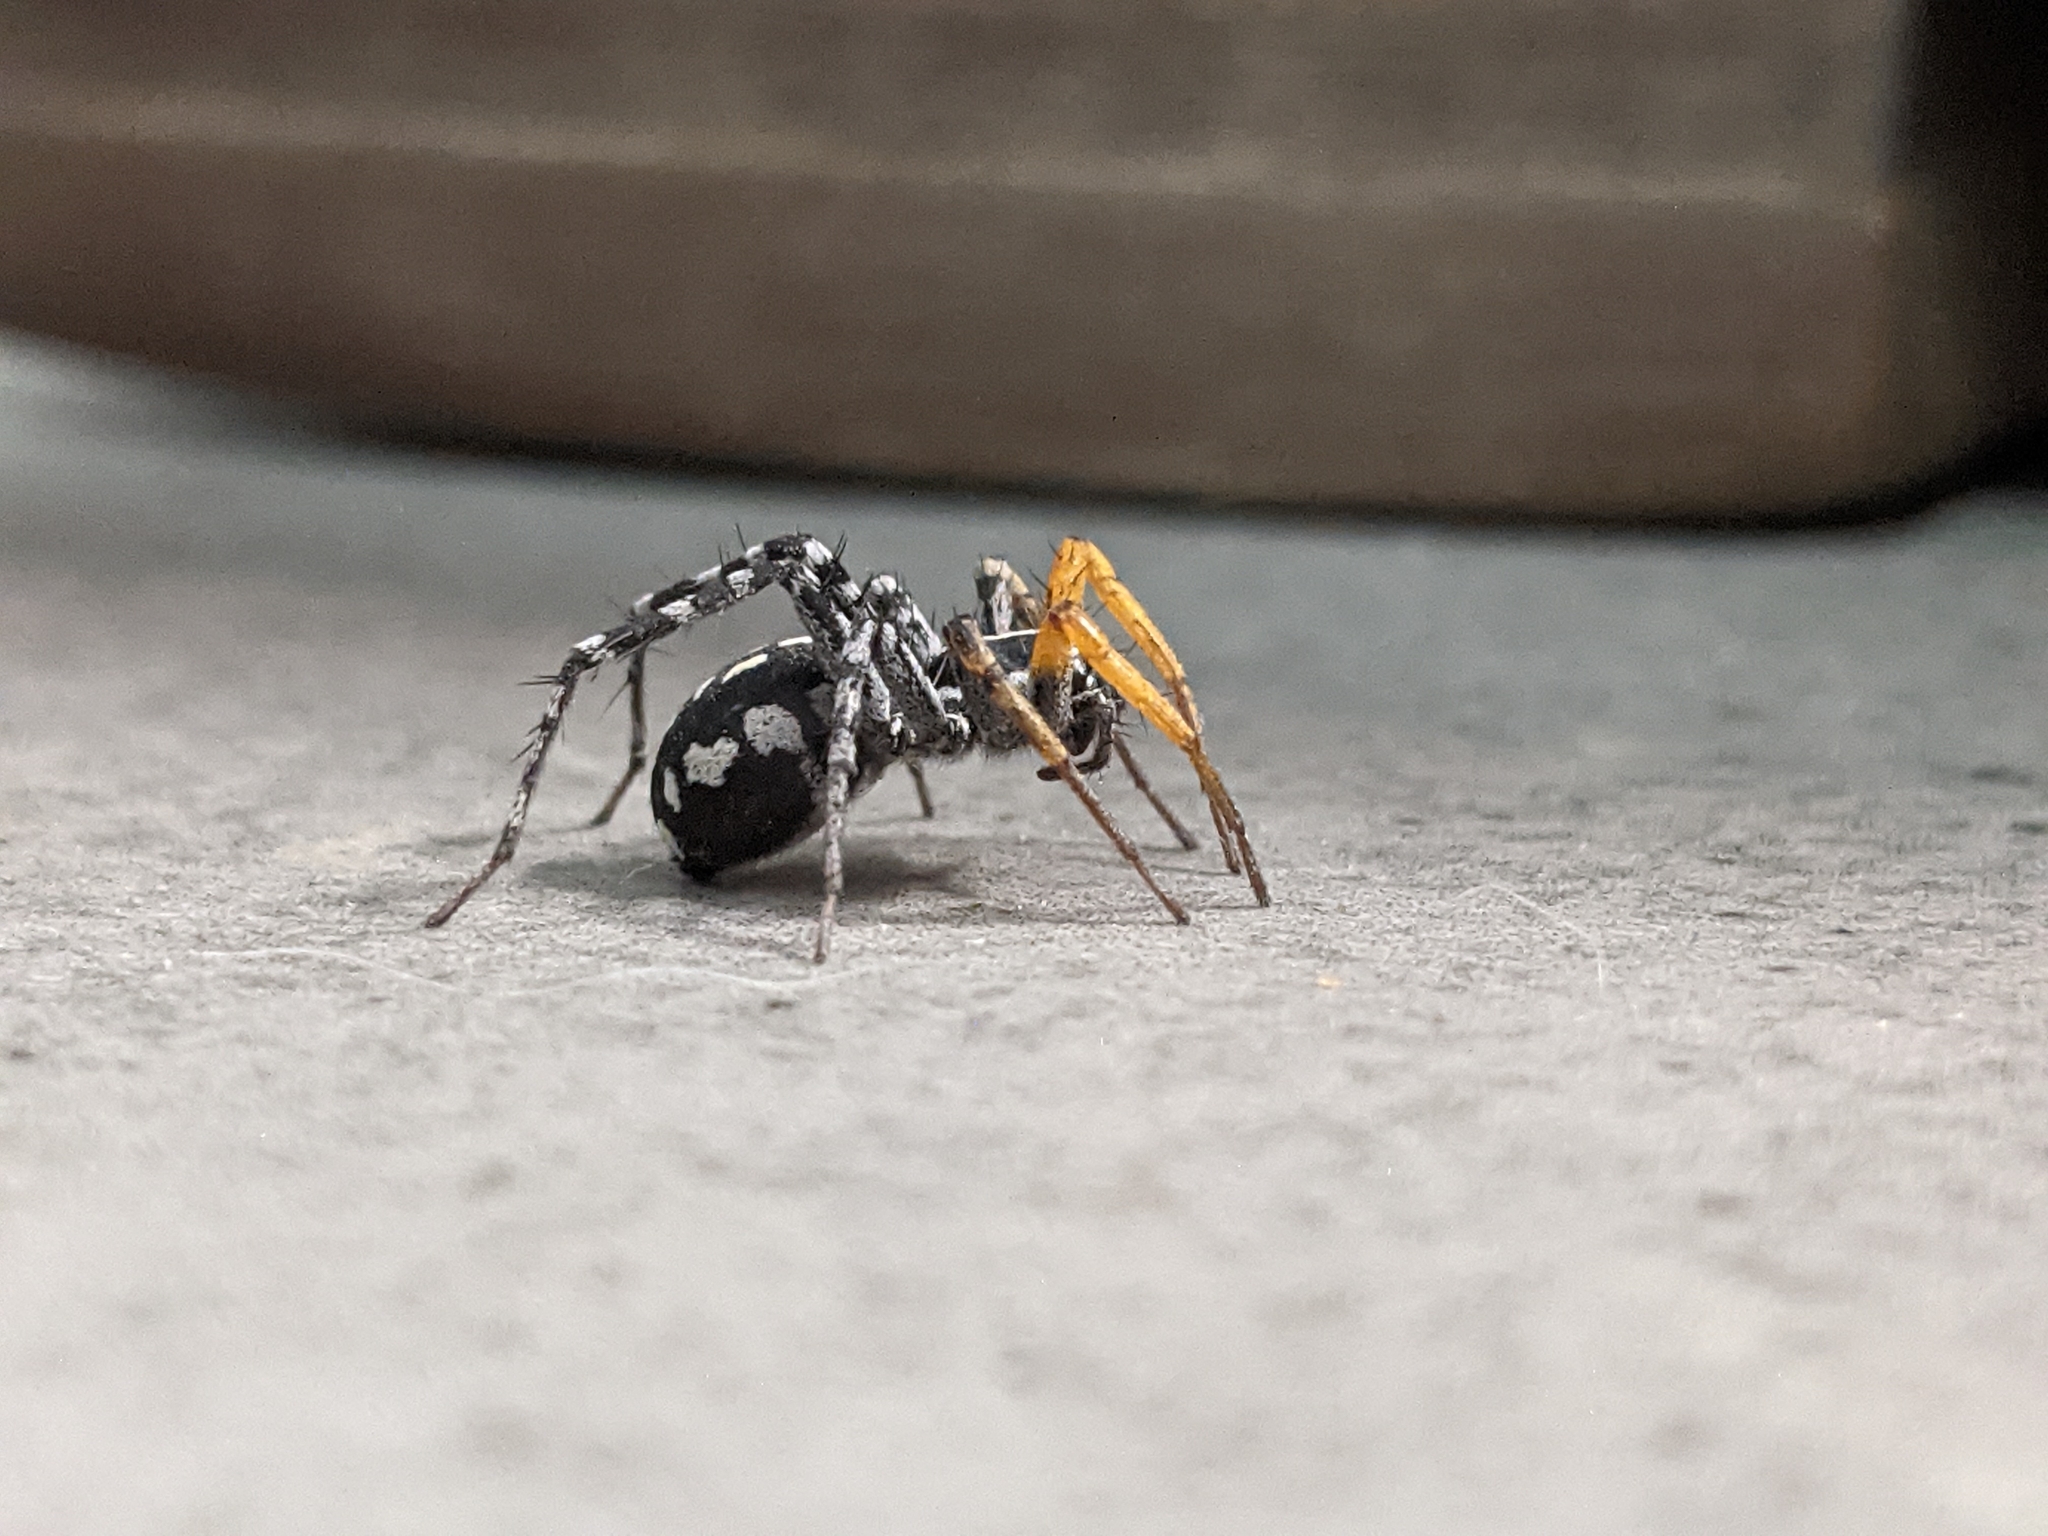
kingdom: Animalia
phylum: Arthropoda
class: Arachnida
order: Araneae
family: Corinnidae
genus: Nyssus
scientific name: Nyssus coloripes
